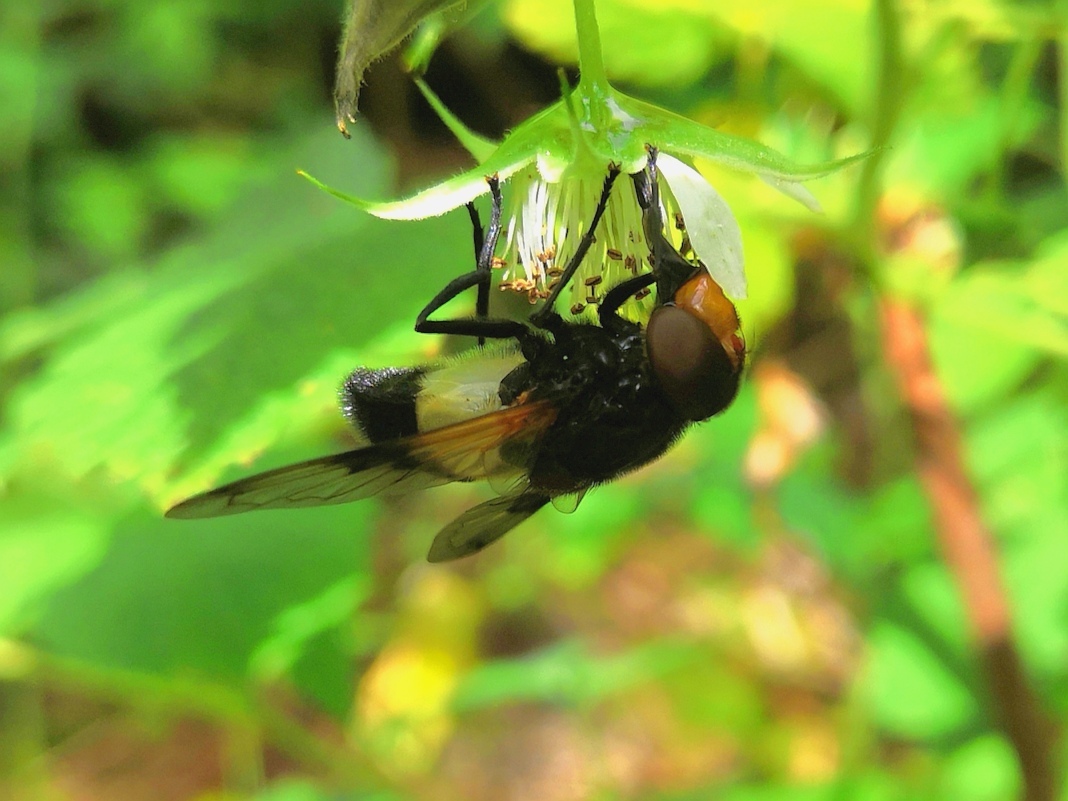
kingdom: Animalia
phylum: Arthropoda
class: Insecta
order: Diptera
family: Syrphidae
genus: Volucella
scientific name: Volucella pellucens
